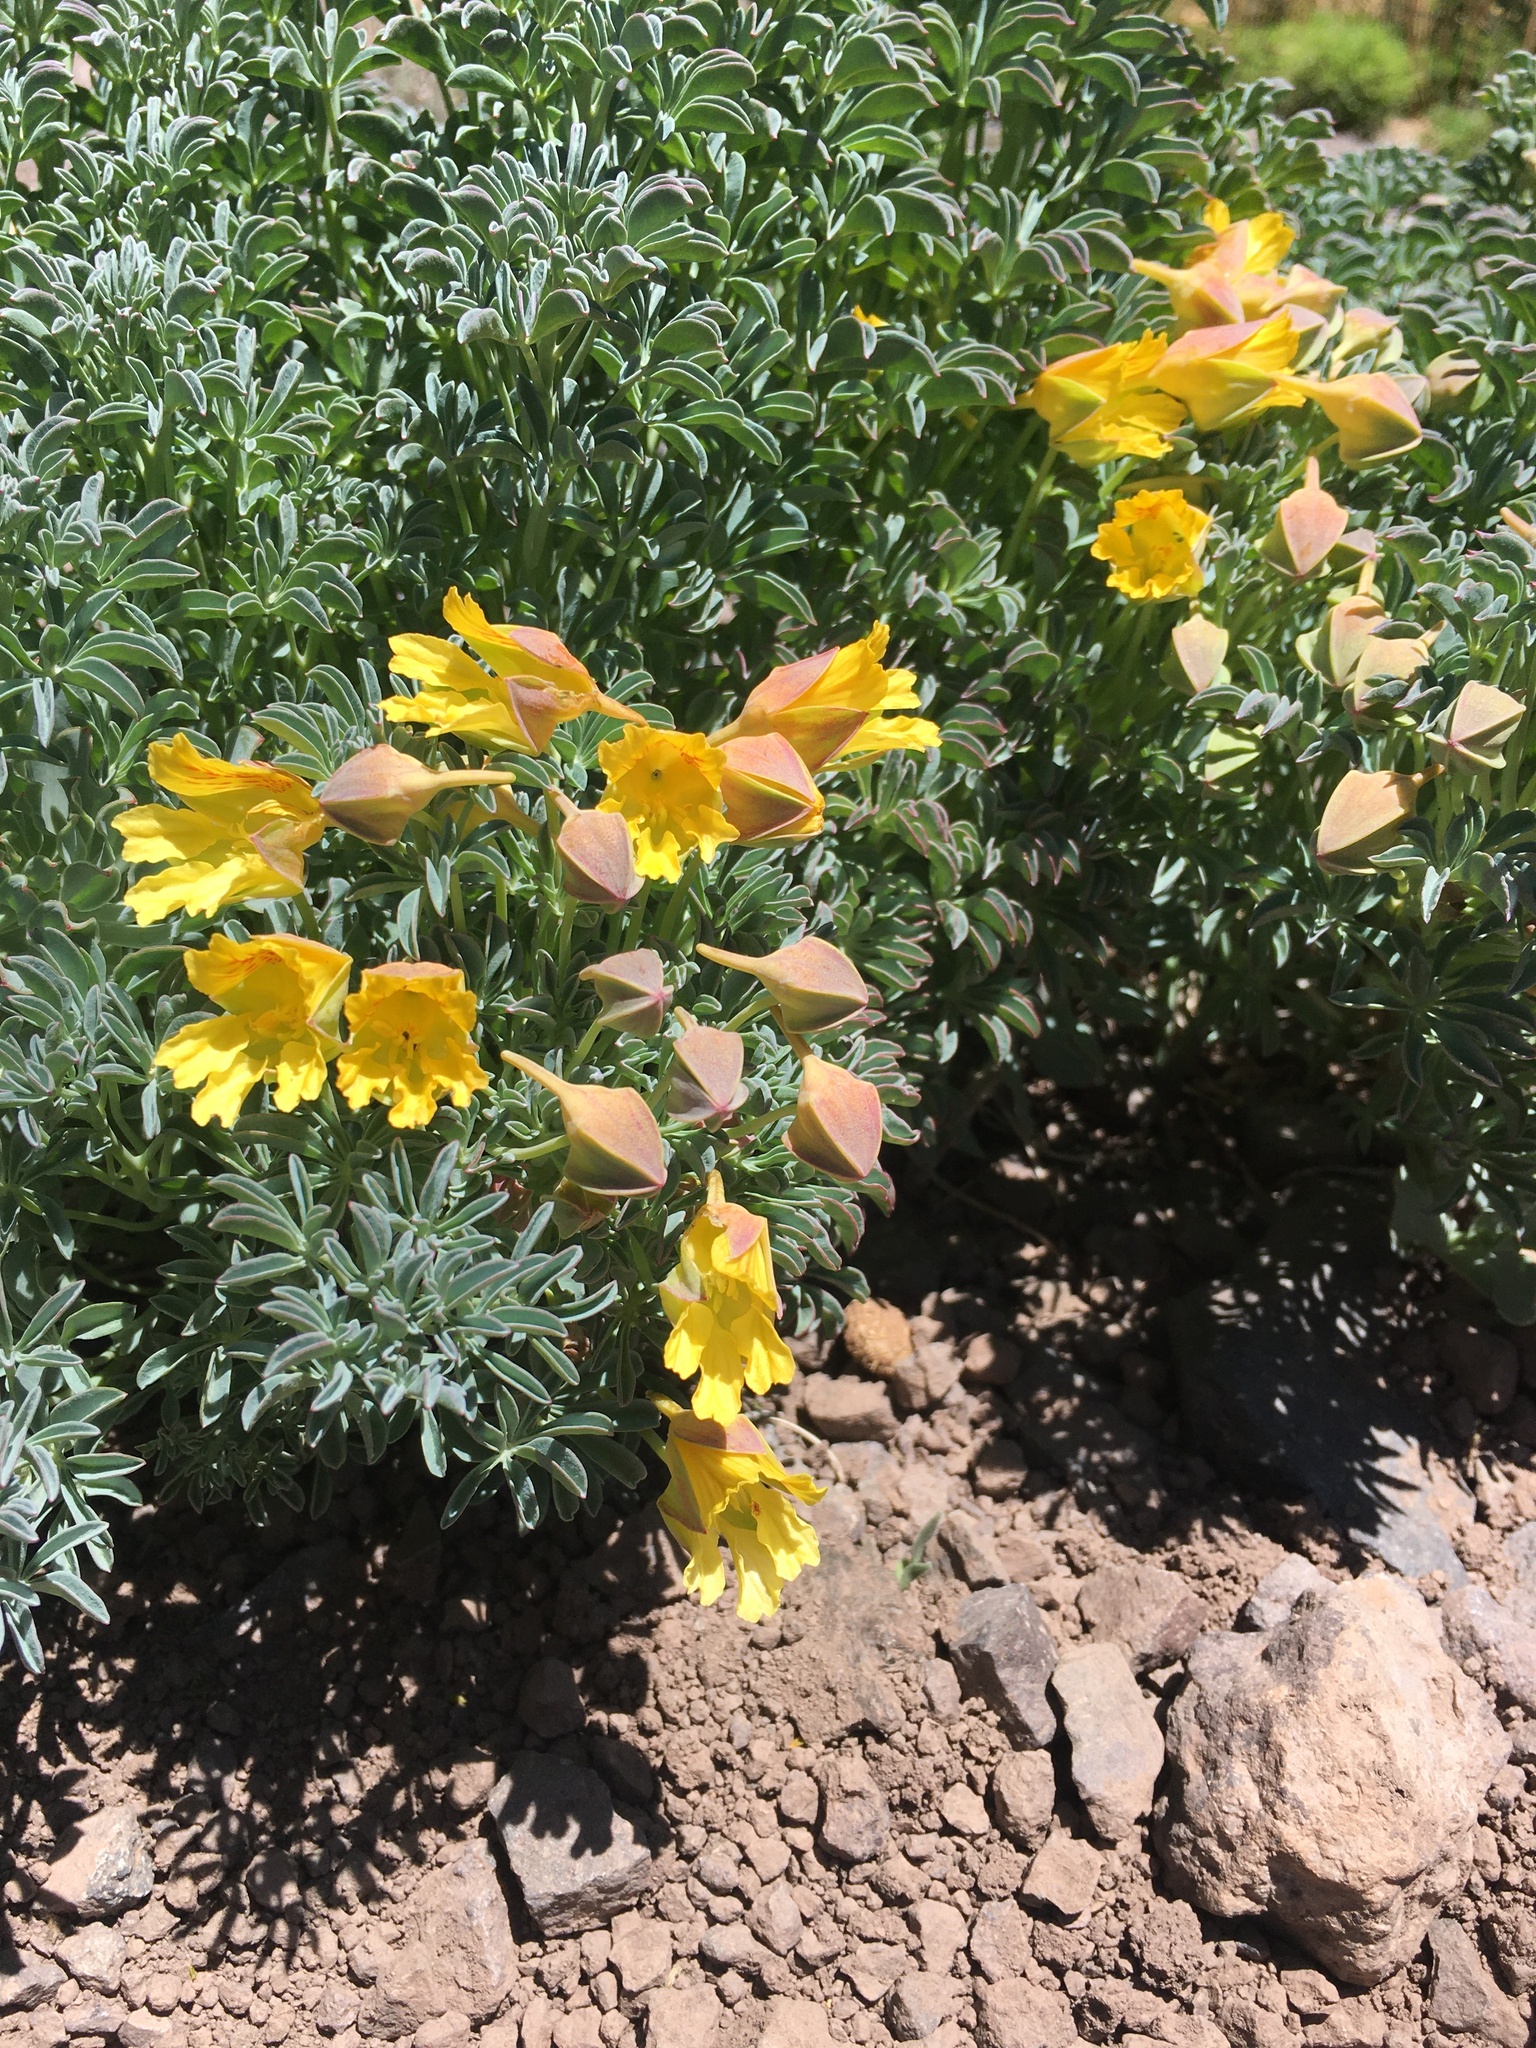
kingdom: Plantae
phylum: Tracheophyta
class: Magnoliopsida
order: Brassicales
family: Tropaeolaceae
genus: Tropaeolum
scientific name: Tropaeolum polyphyllum
